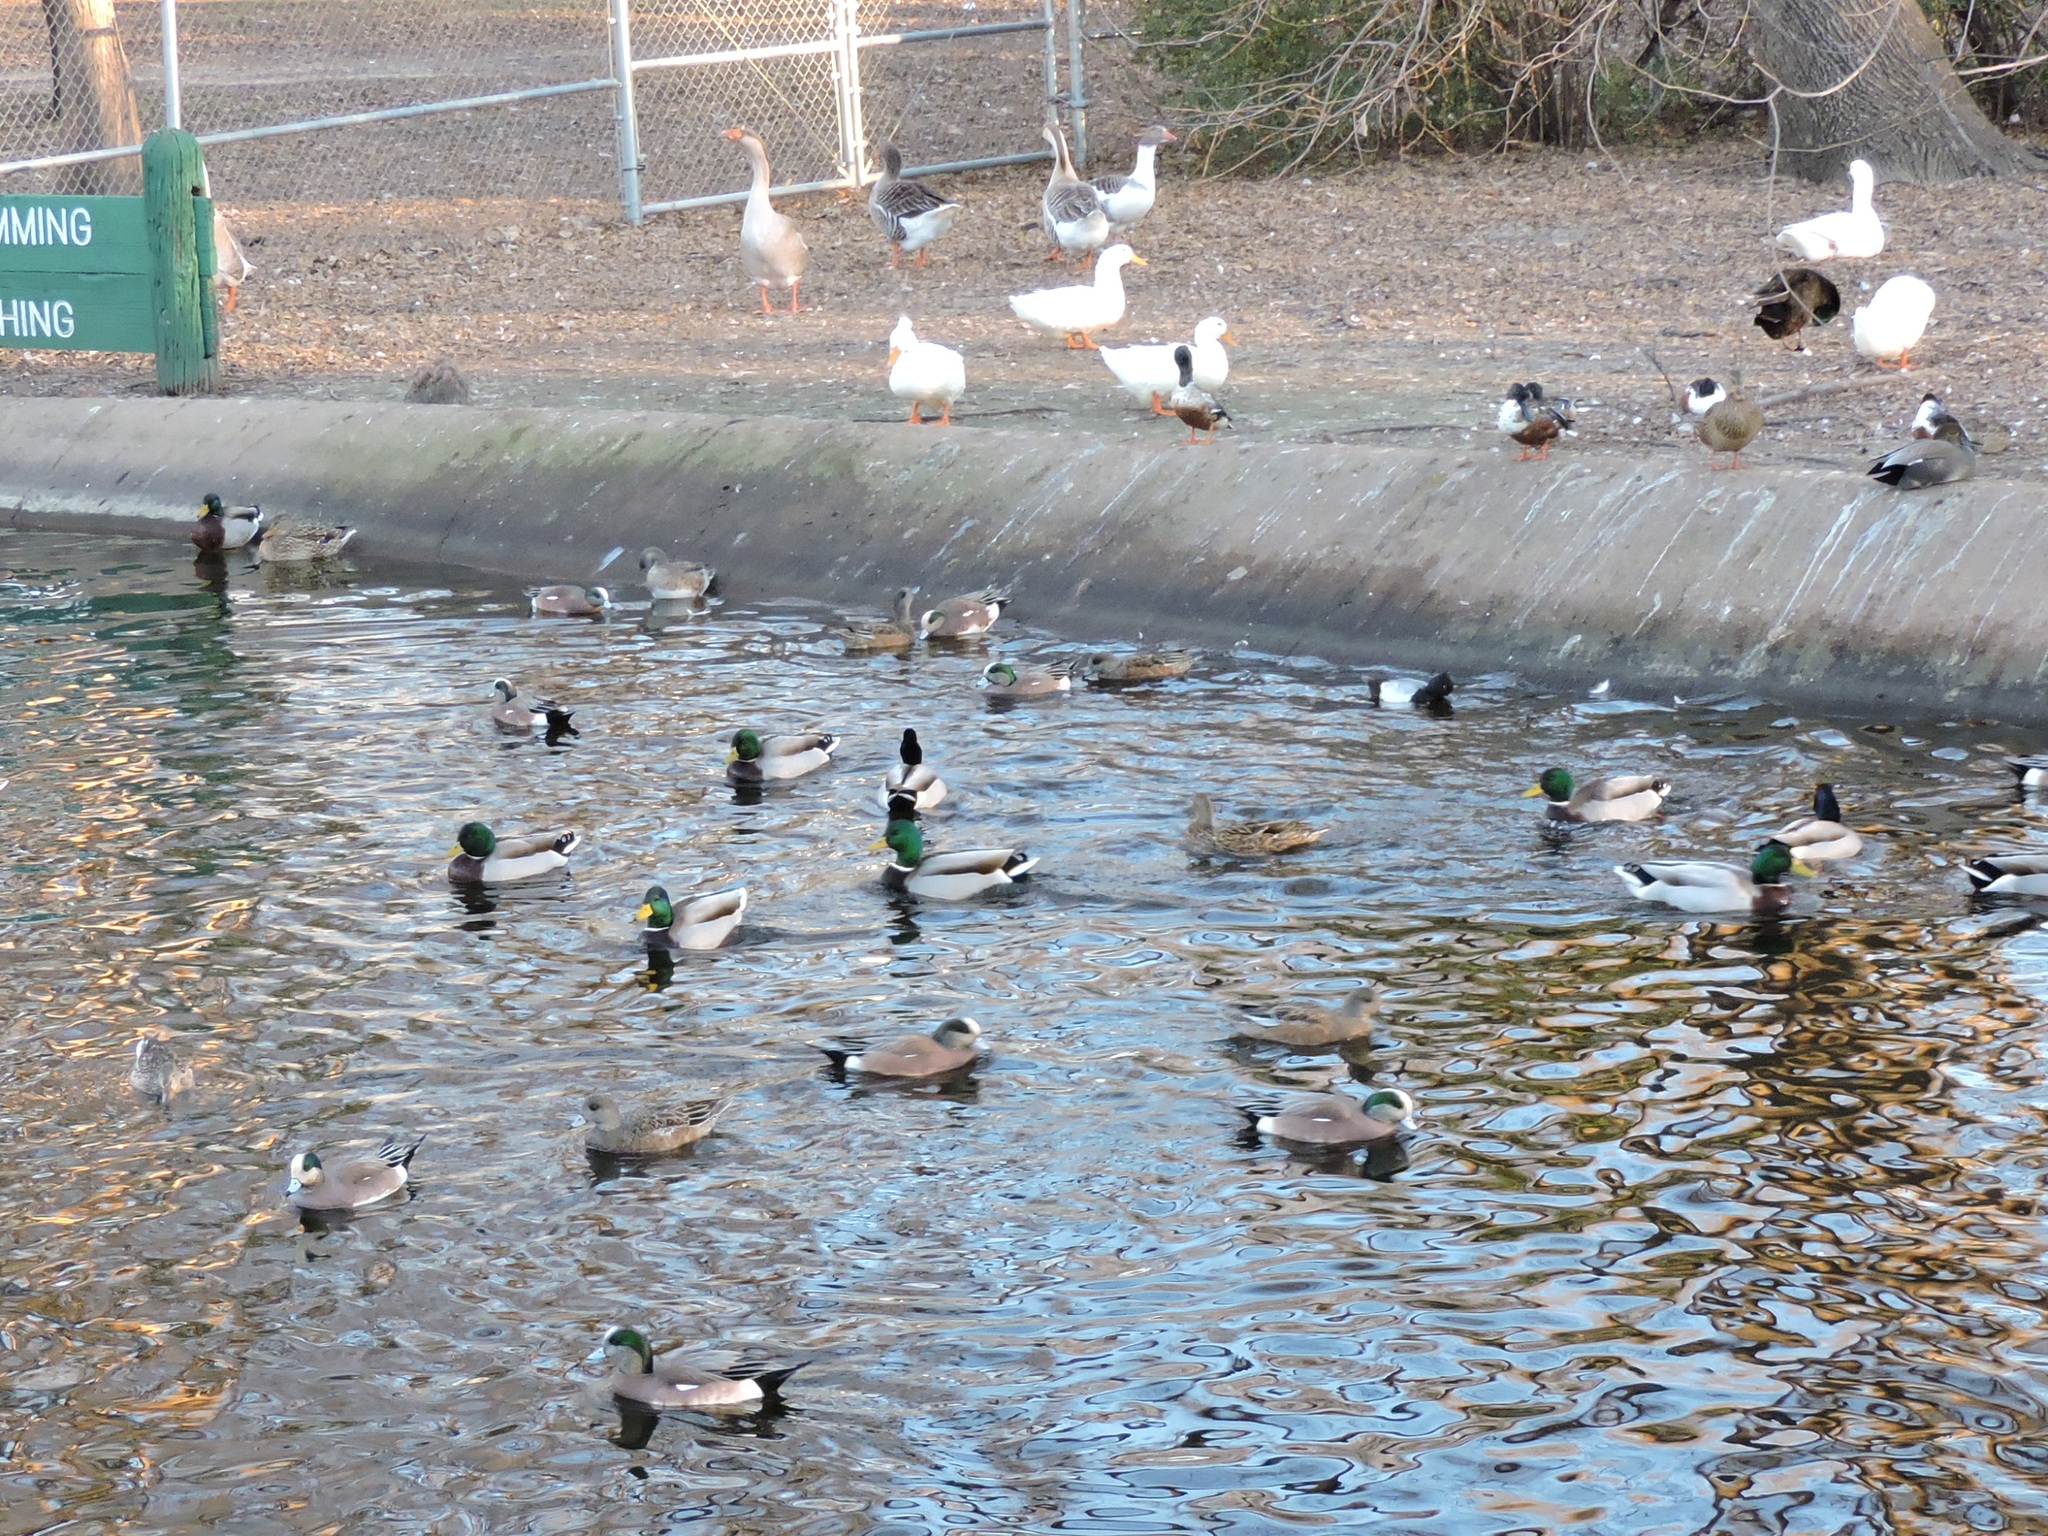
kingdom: Animalia
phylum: Chordata
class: Aves
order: Anseriformes
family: Anatidae
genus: Anas
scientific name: Anas platyrhynchos
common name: Mallard
